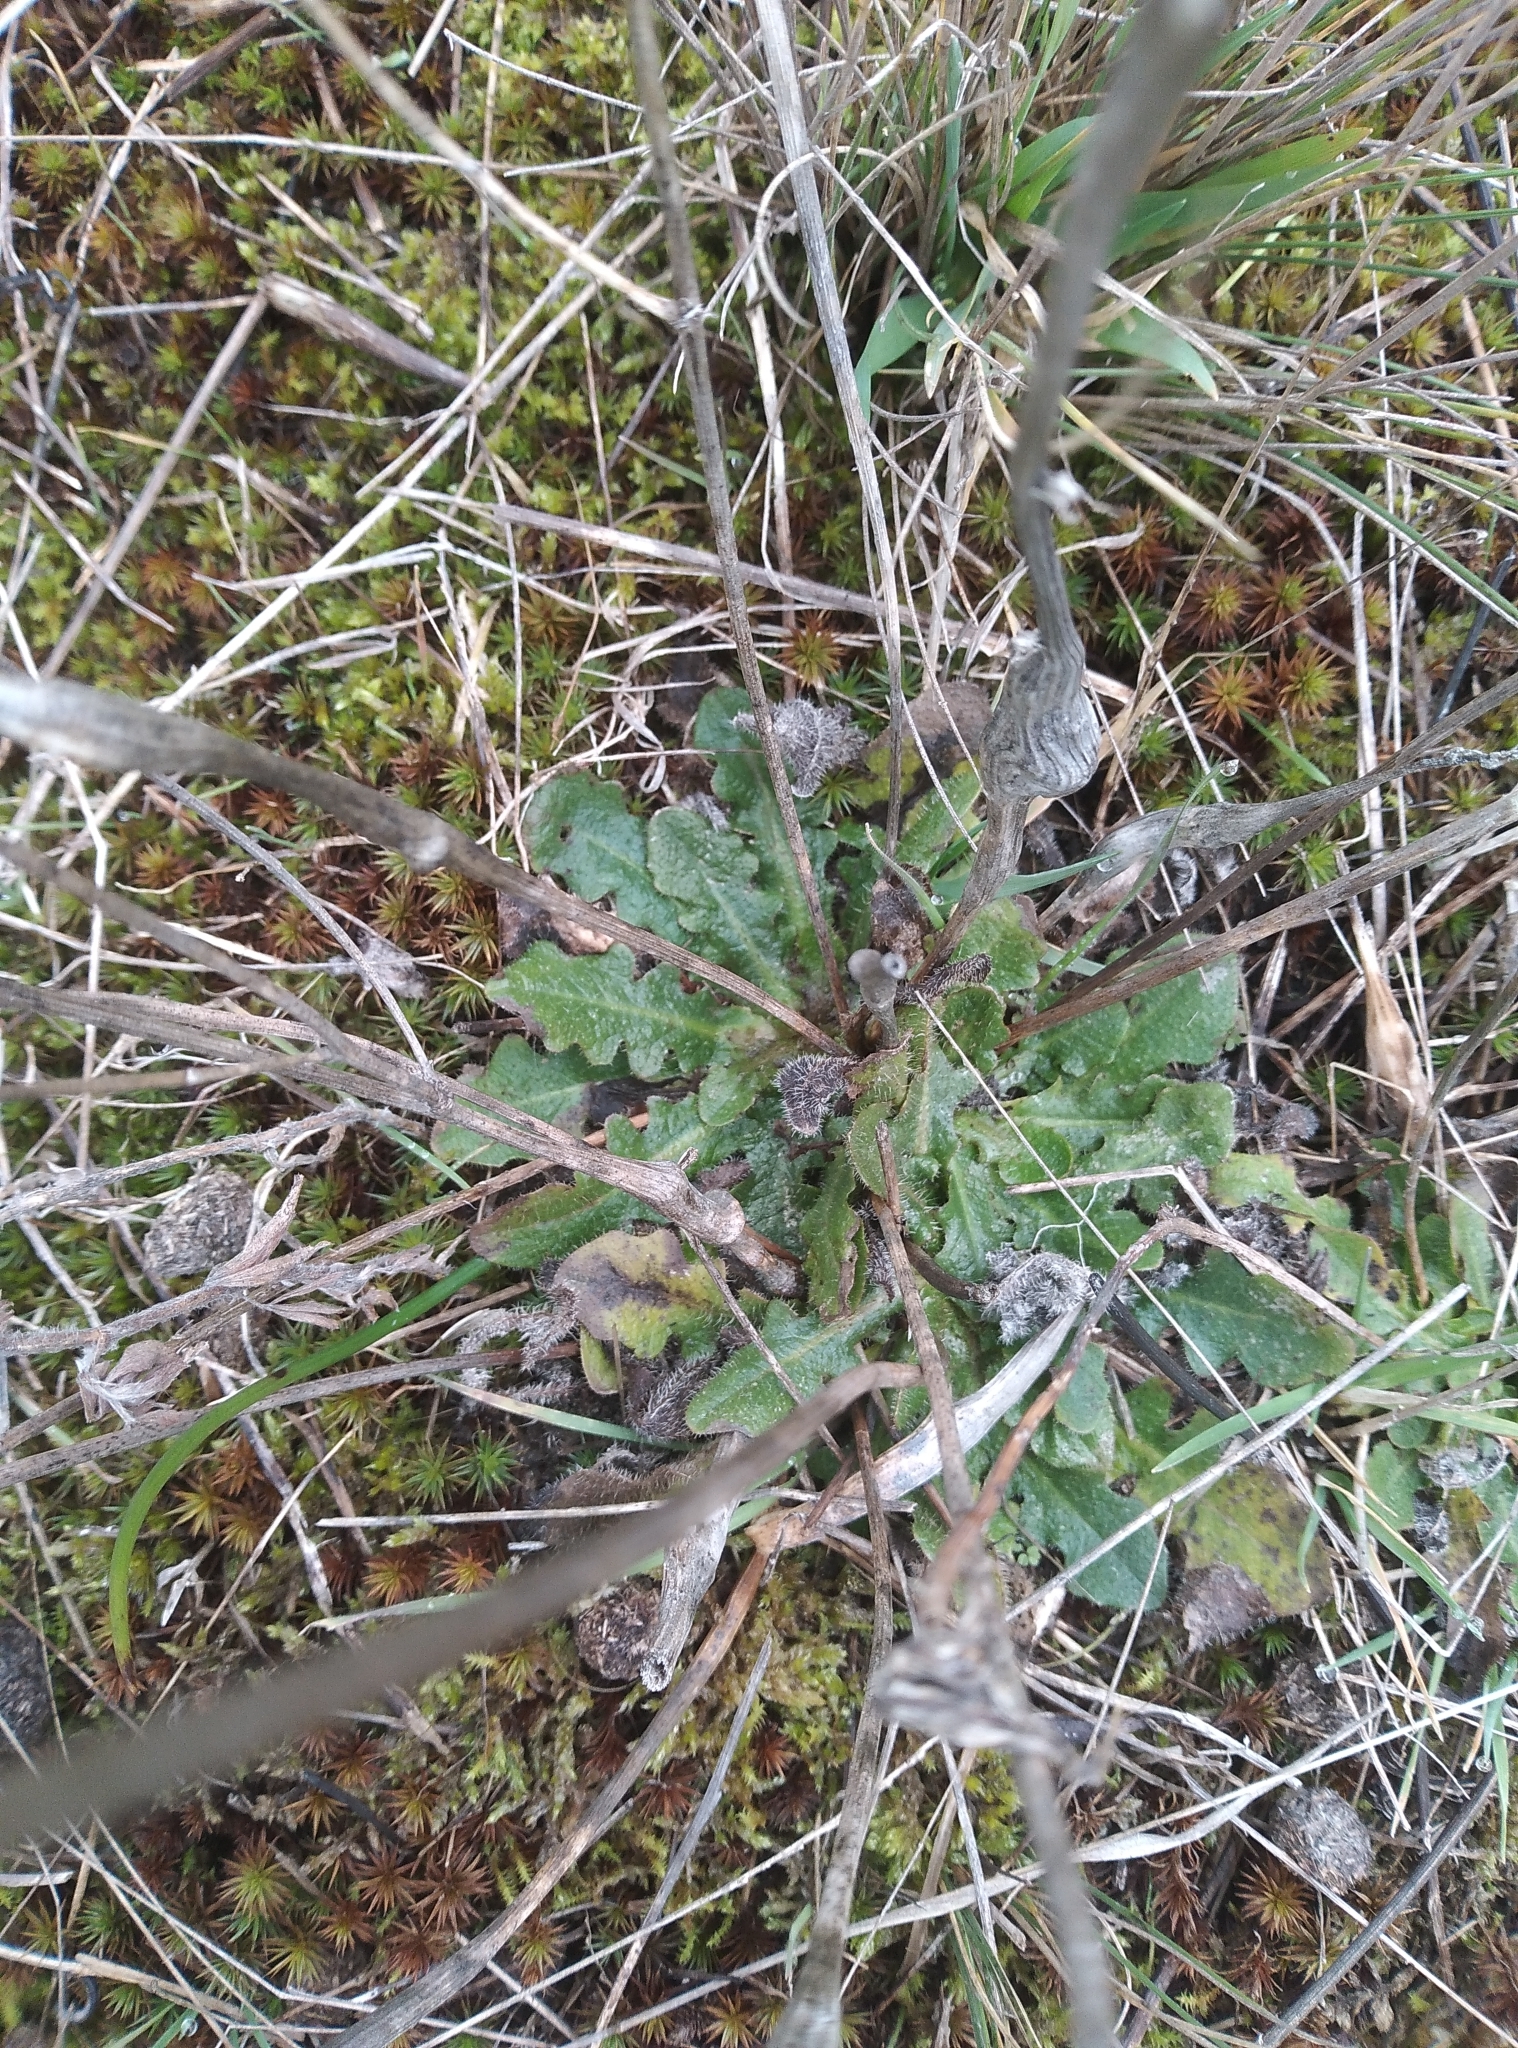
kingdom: Plantae
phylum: Tracheophyta
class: Magnoliopsida
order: Asterales
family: Asteraceae
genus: Hypochaeris
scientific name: Hypochaeris radicata
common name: Flatweed
